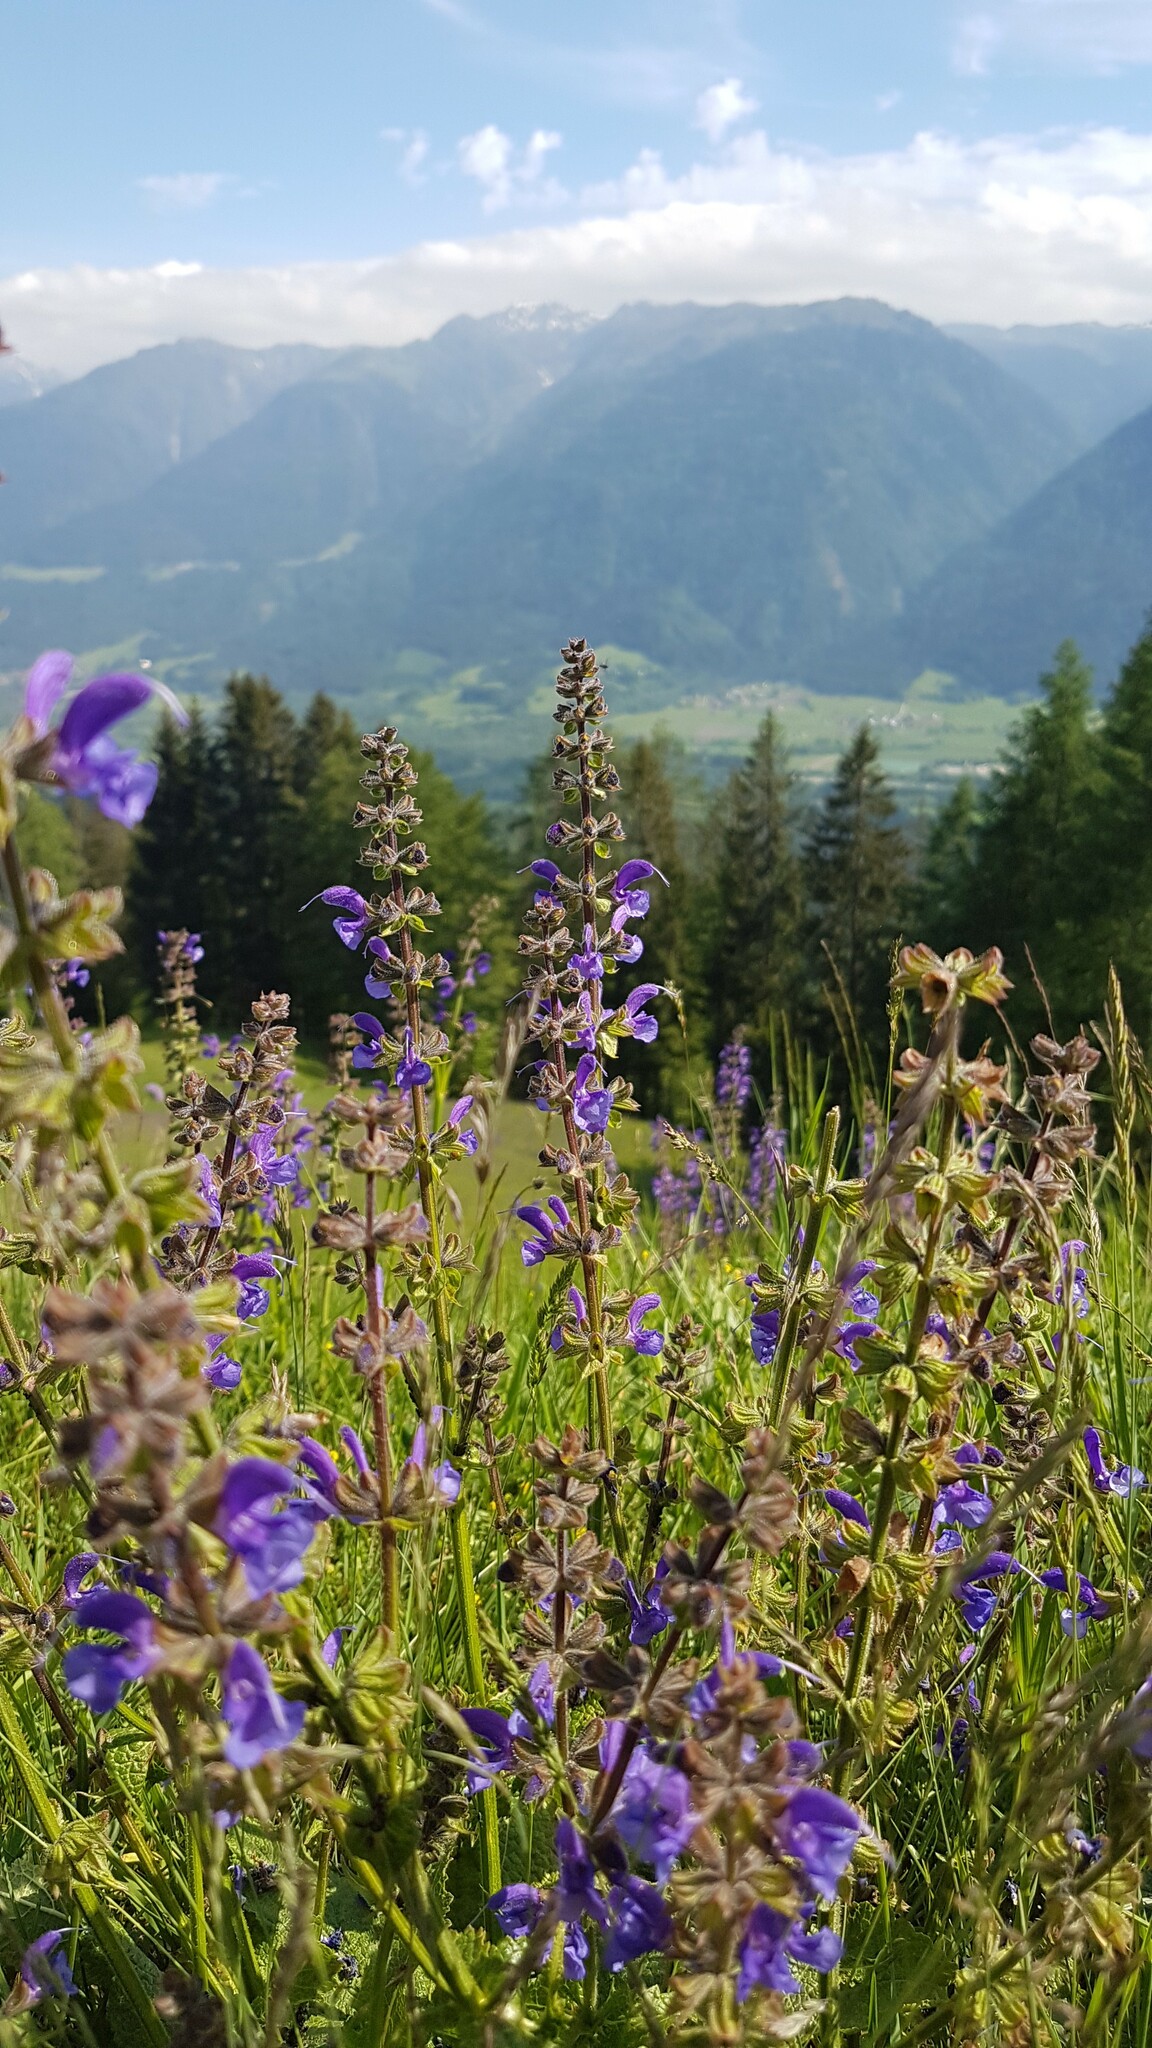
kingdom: Plantae
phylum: Tracheophyta
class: Magnoliopsida
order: Lamiales
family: Lamiaceae
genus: Salvia
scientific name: Salvia pratensis
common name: Meadow sage
